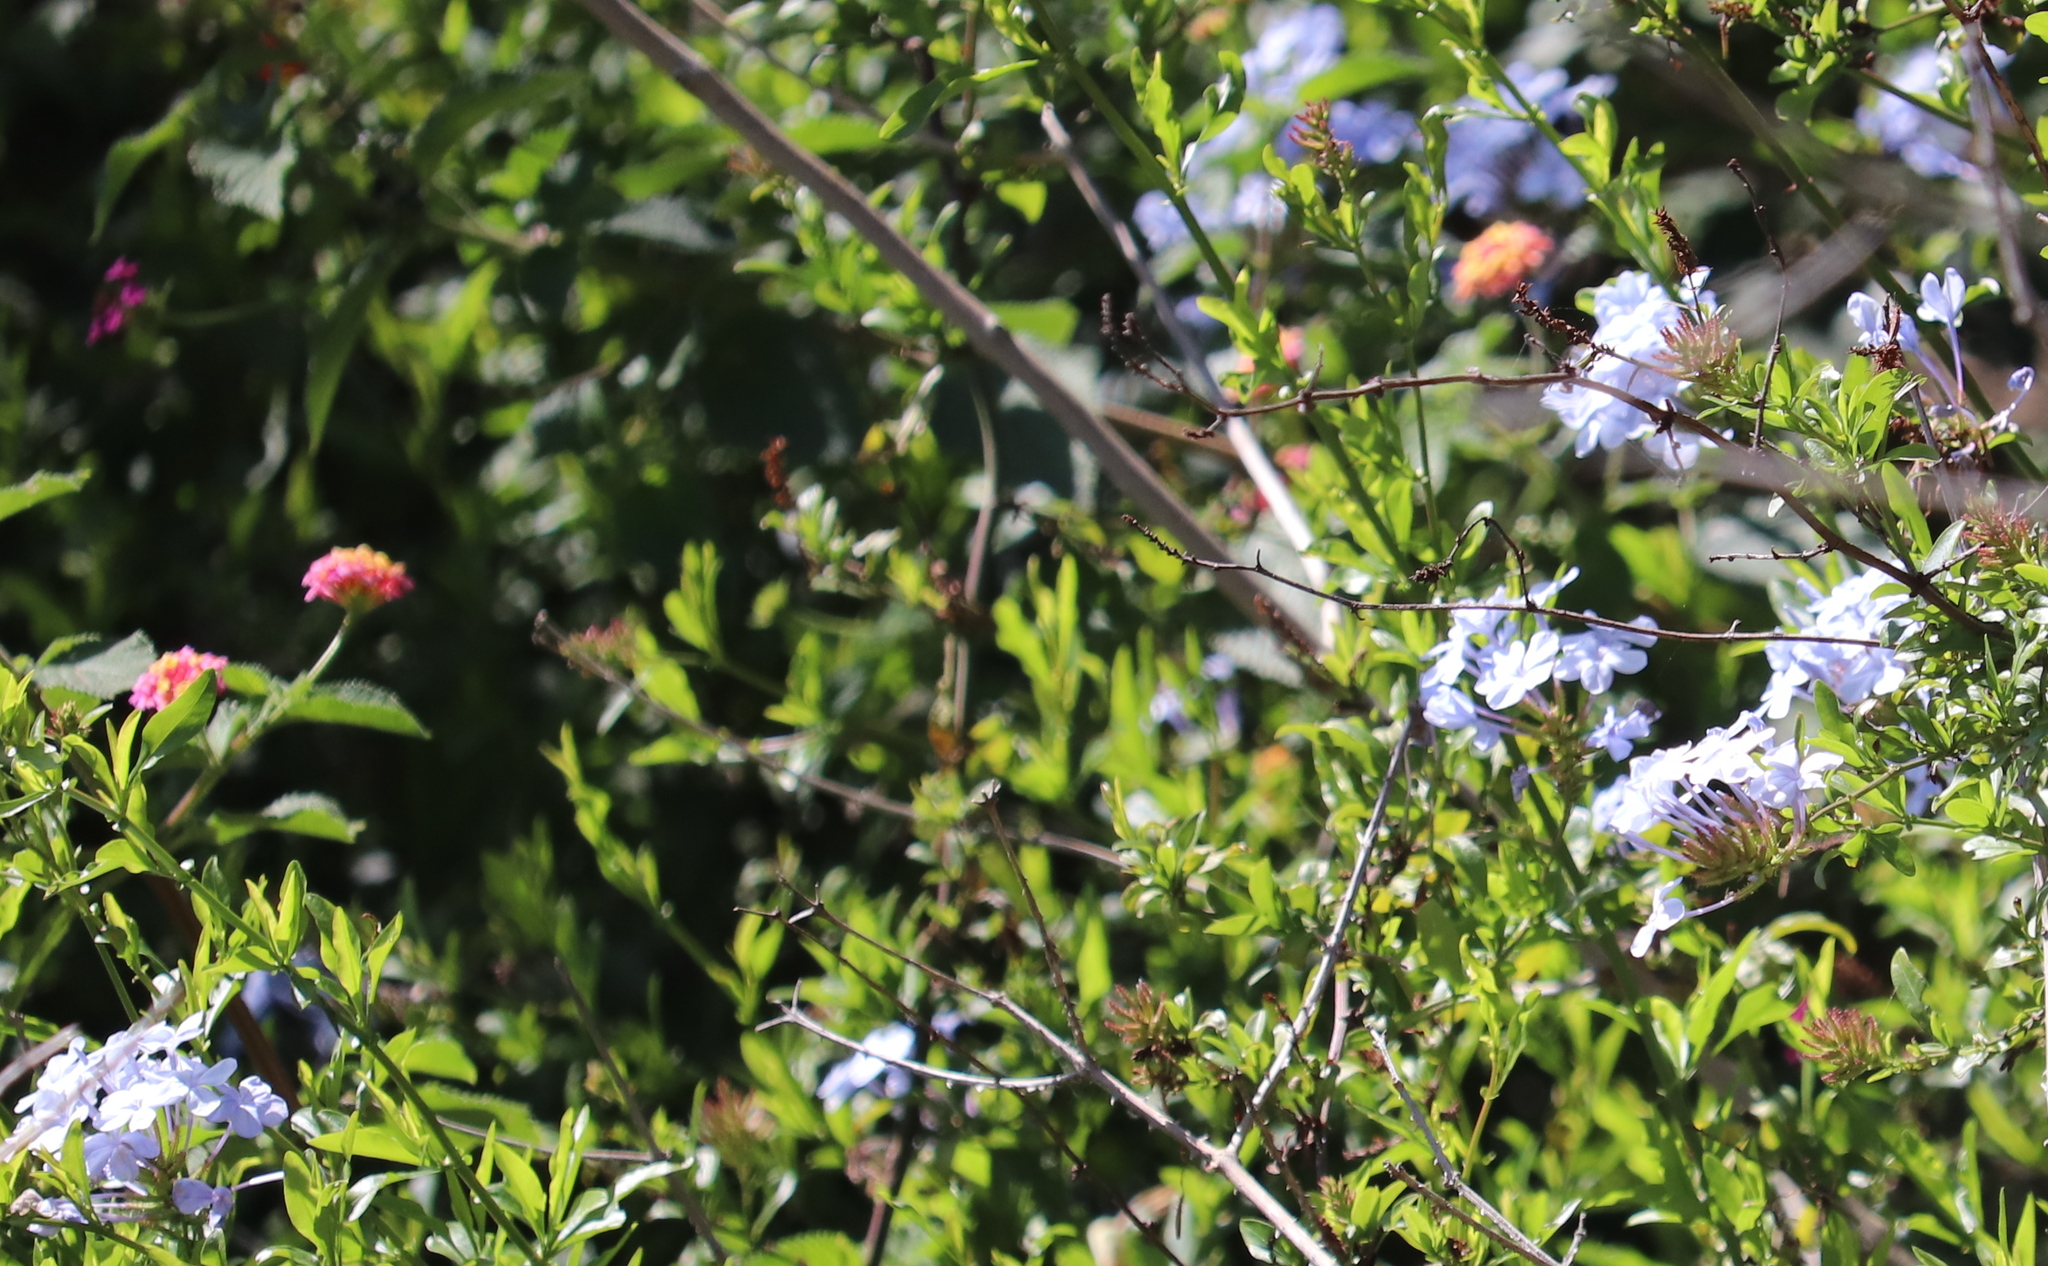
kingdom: Plantae
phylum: Tracheophyta
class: Magnoliopsida
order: Caryophyllales
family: Plumbaginaceae
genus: Plumbago
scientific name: Plumbago auriculata
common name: Cape leadwort
